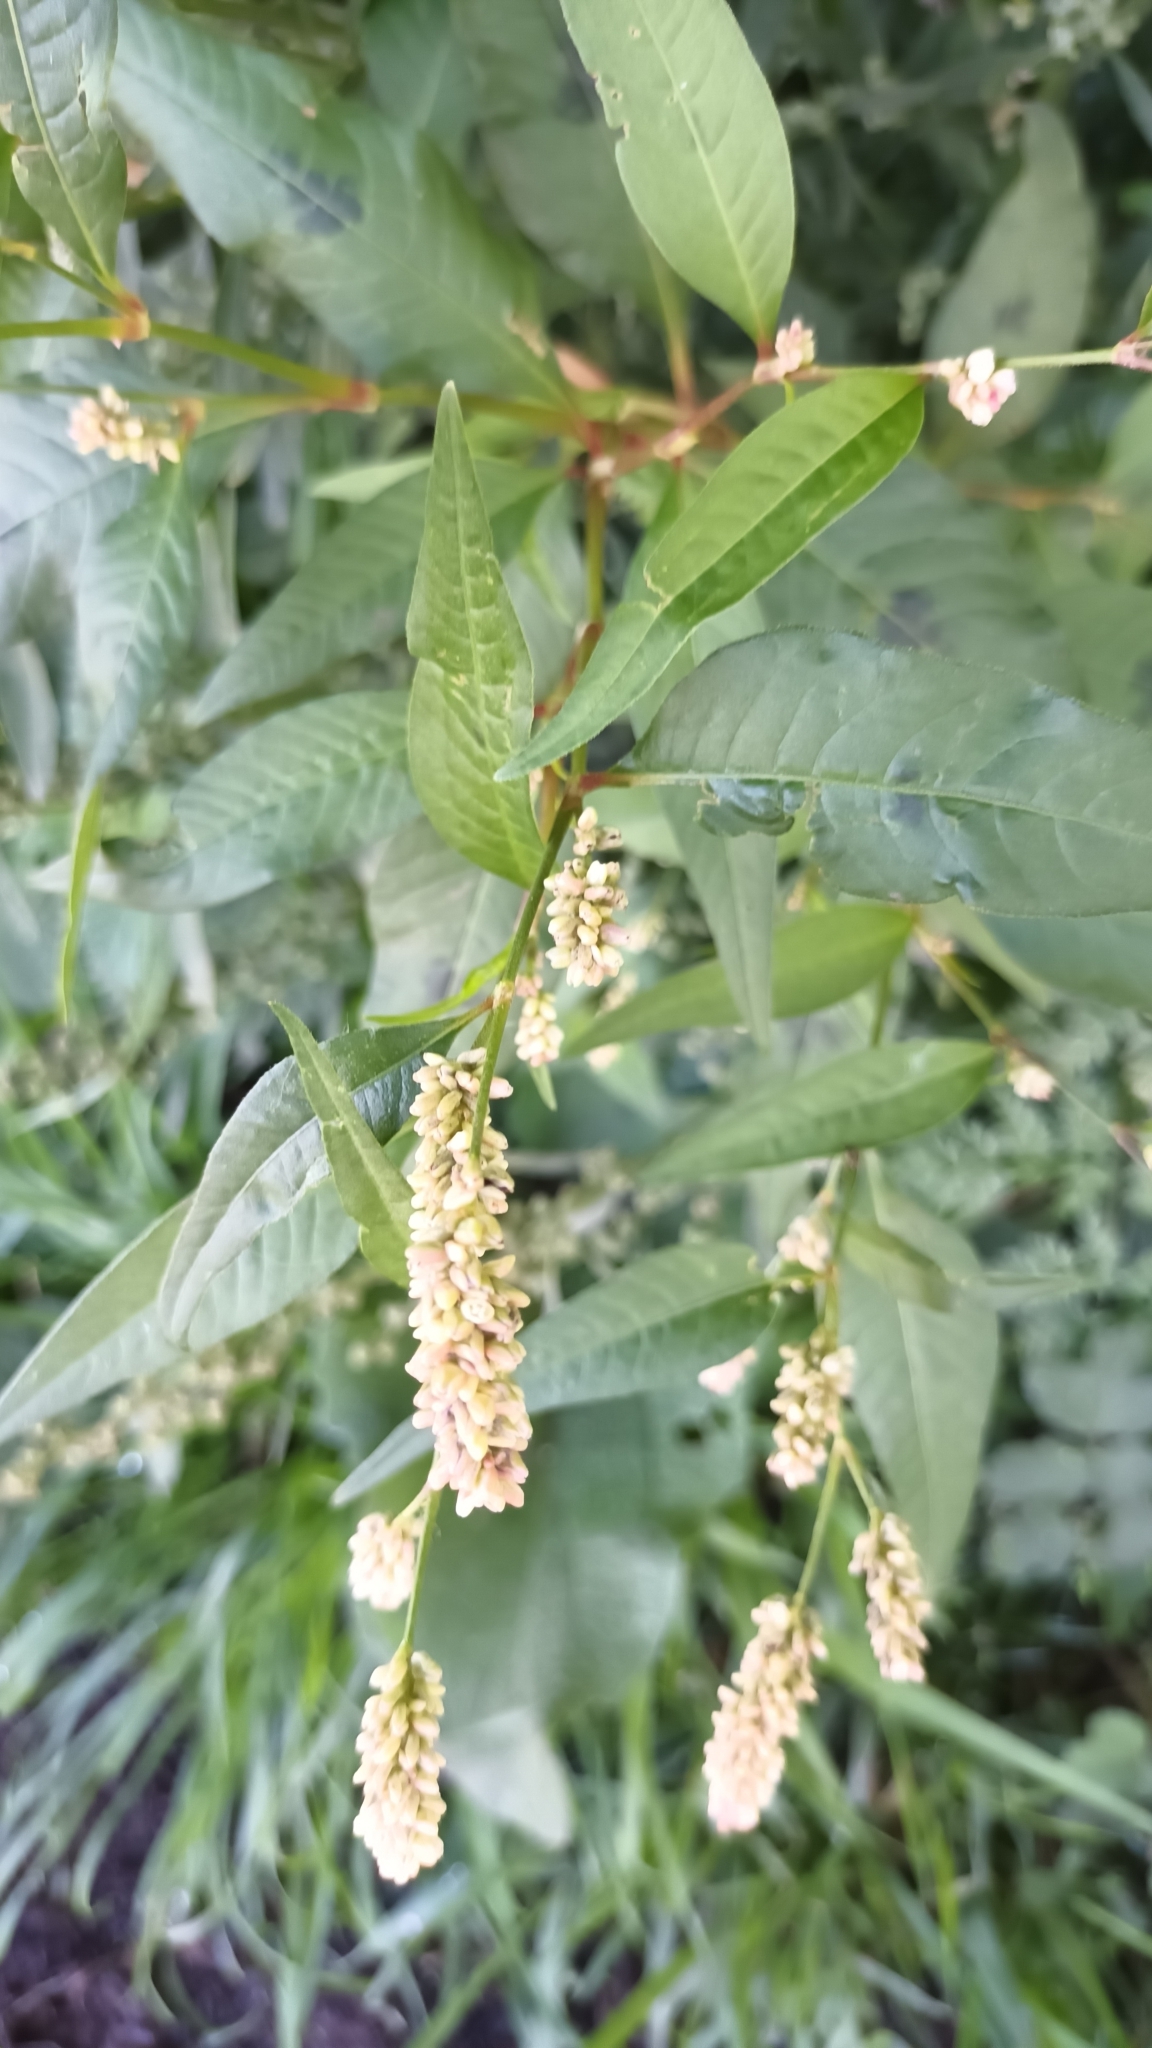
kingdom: Plantae
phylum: Tracheophyta
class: Magnoliopsida
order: Caryophyllales
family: Polygonaceae
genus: Persicaria
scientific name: Persicaria maculosa
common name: Redshank
